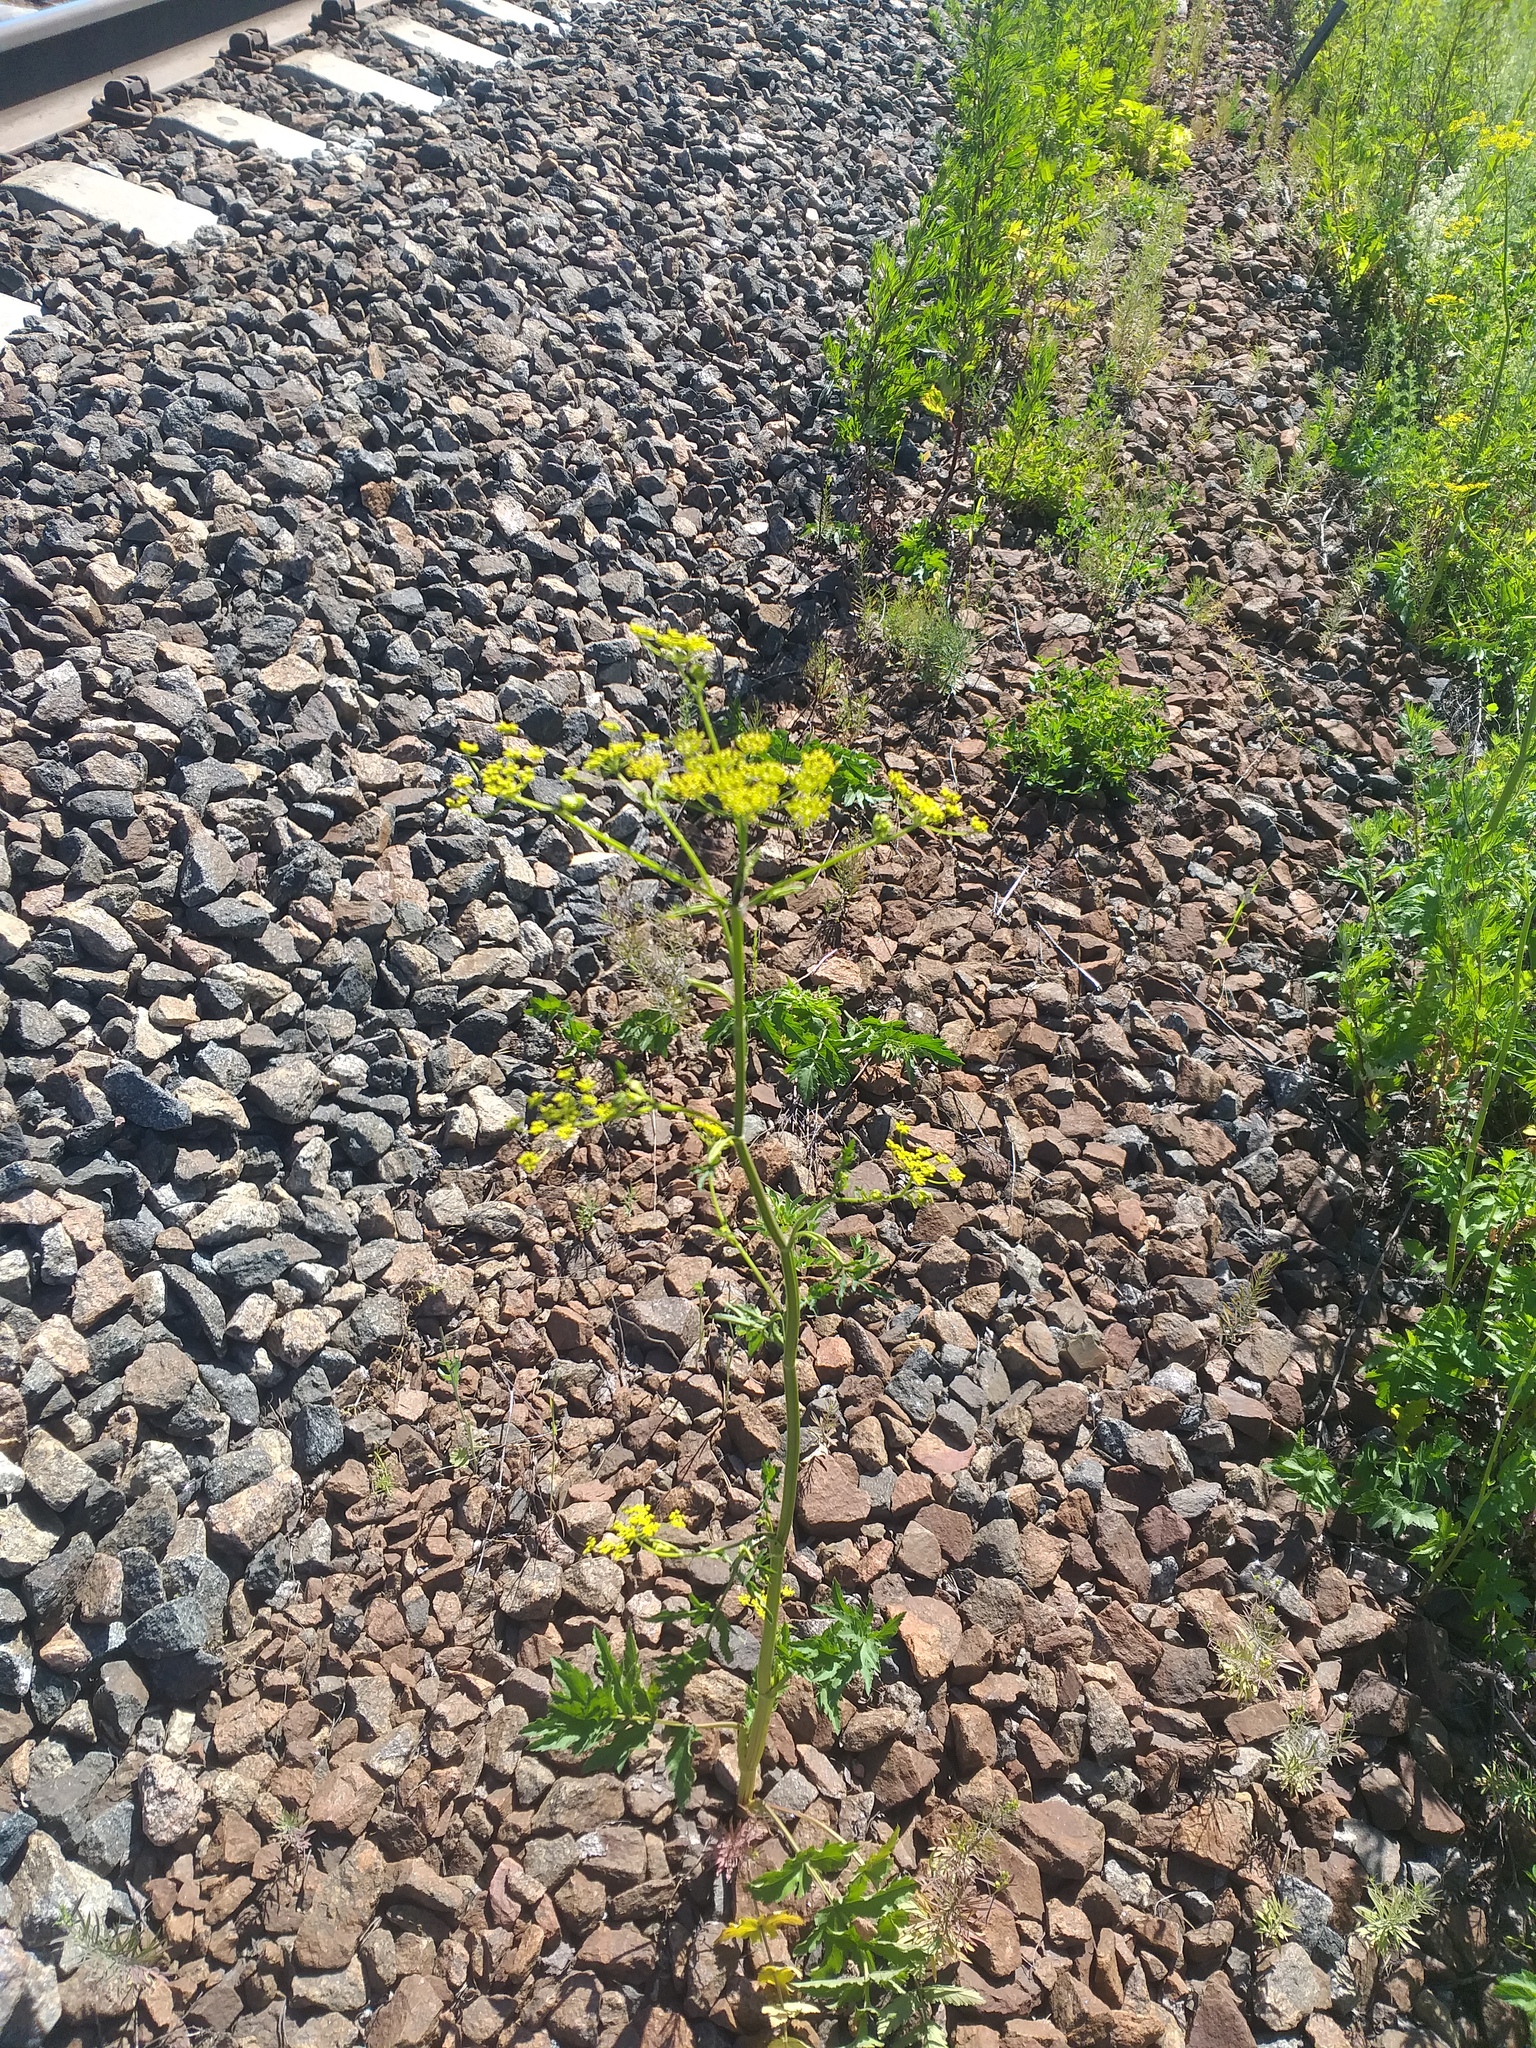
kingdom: Plantae
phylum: Tracheophyta
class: Magnoliopsida
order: Apiales
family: Apiaceae
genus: Pastinaca
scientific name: Pastinaca sativa
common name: Wild parsnip
